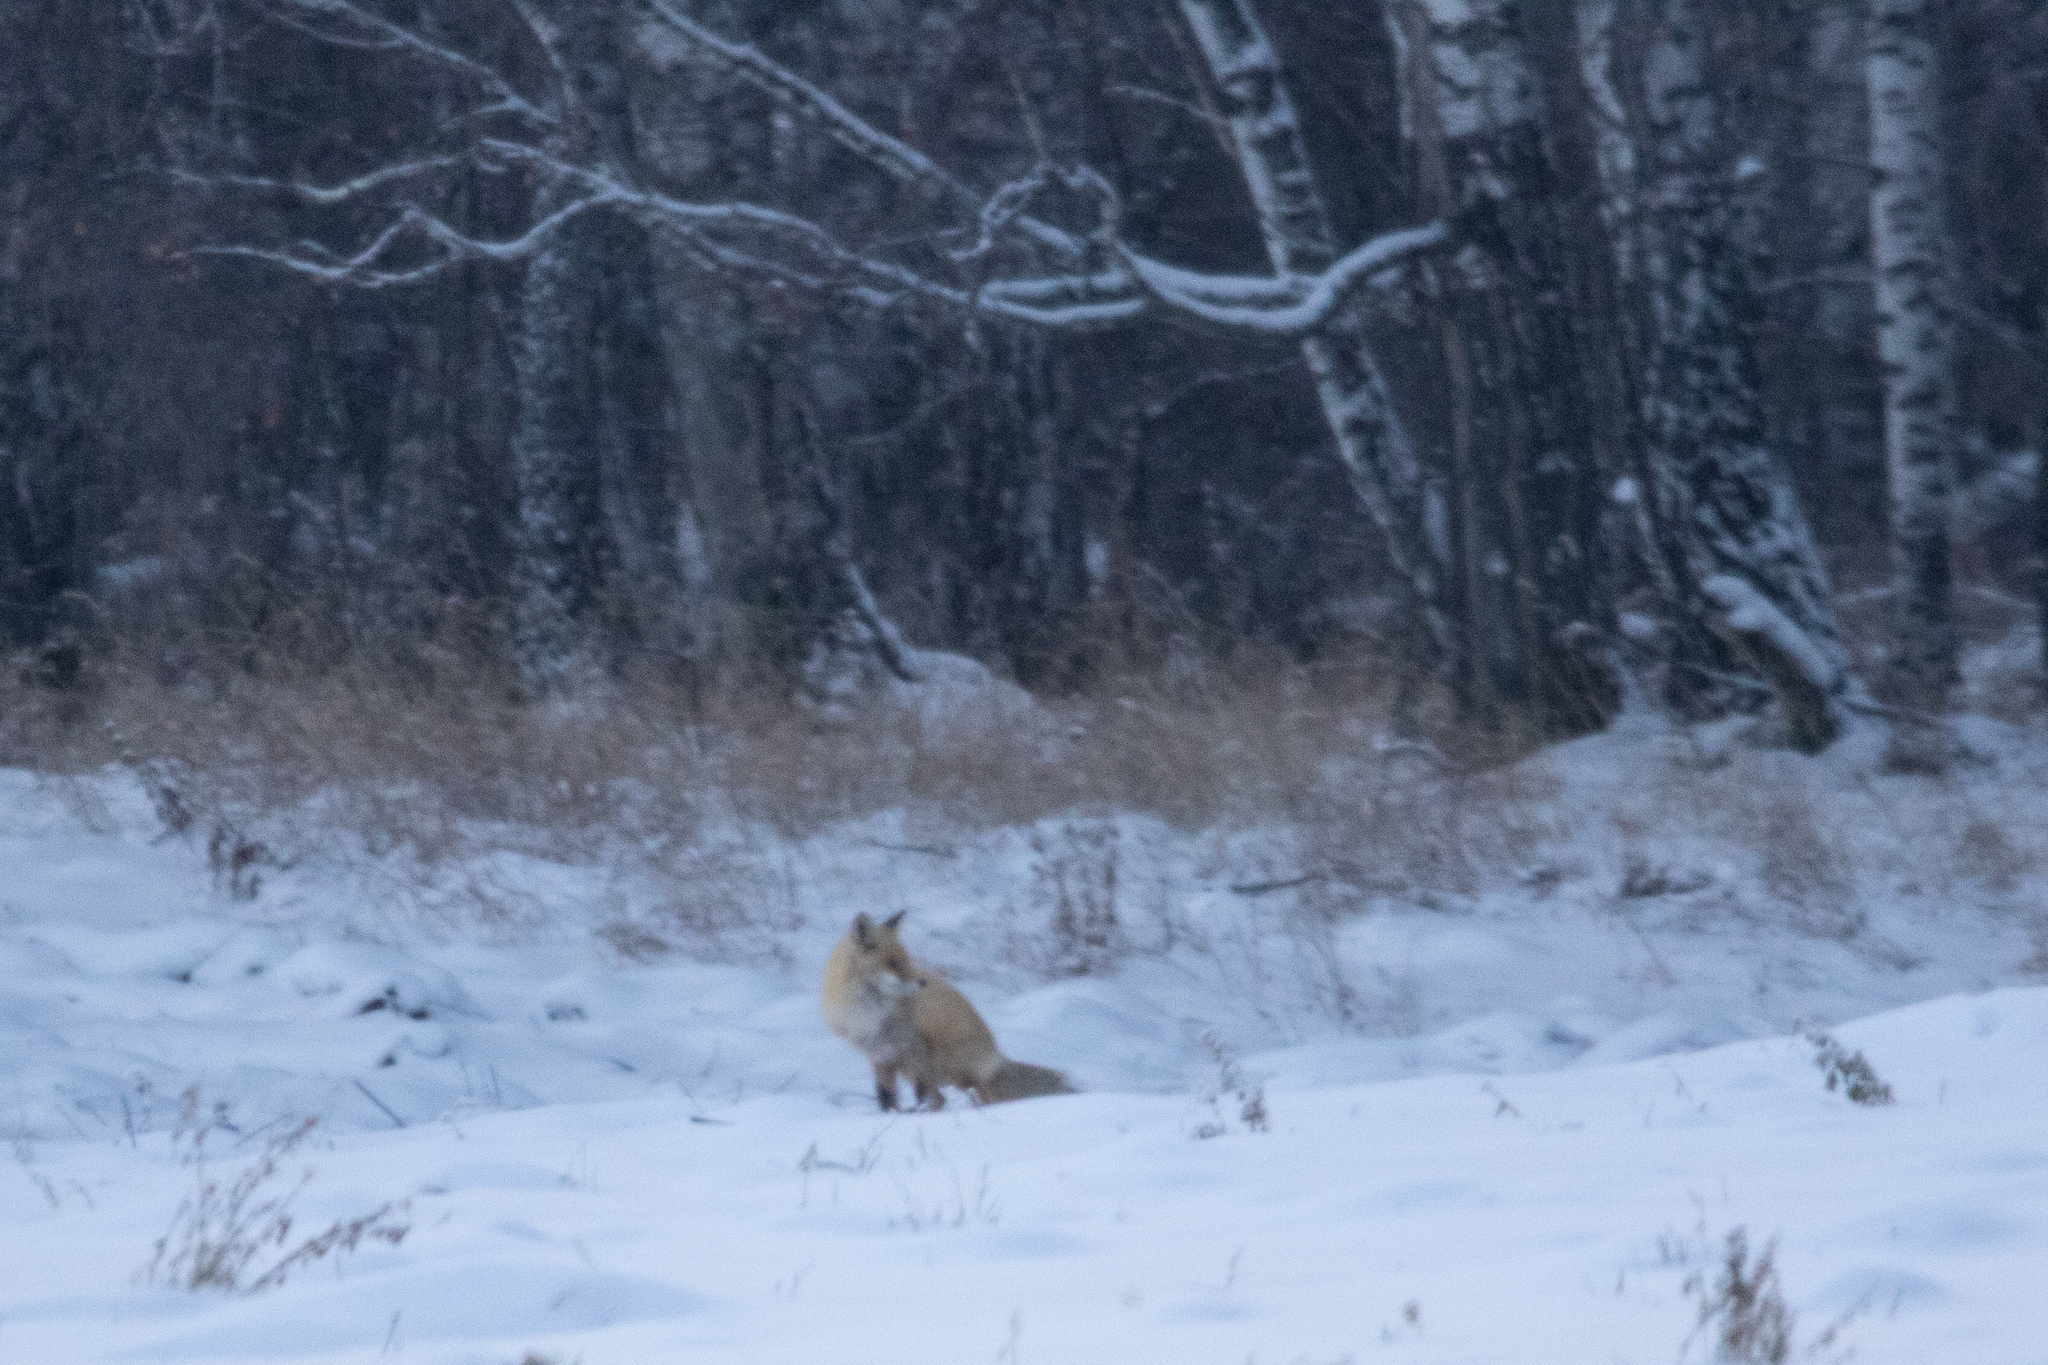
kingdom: Animalia
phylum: Chordata
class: Mammalia
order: Carnivora
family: Canidae
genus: Vulpes
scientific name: Vulpes vulpes
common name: Red fox
